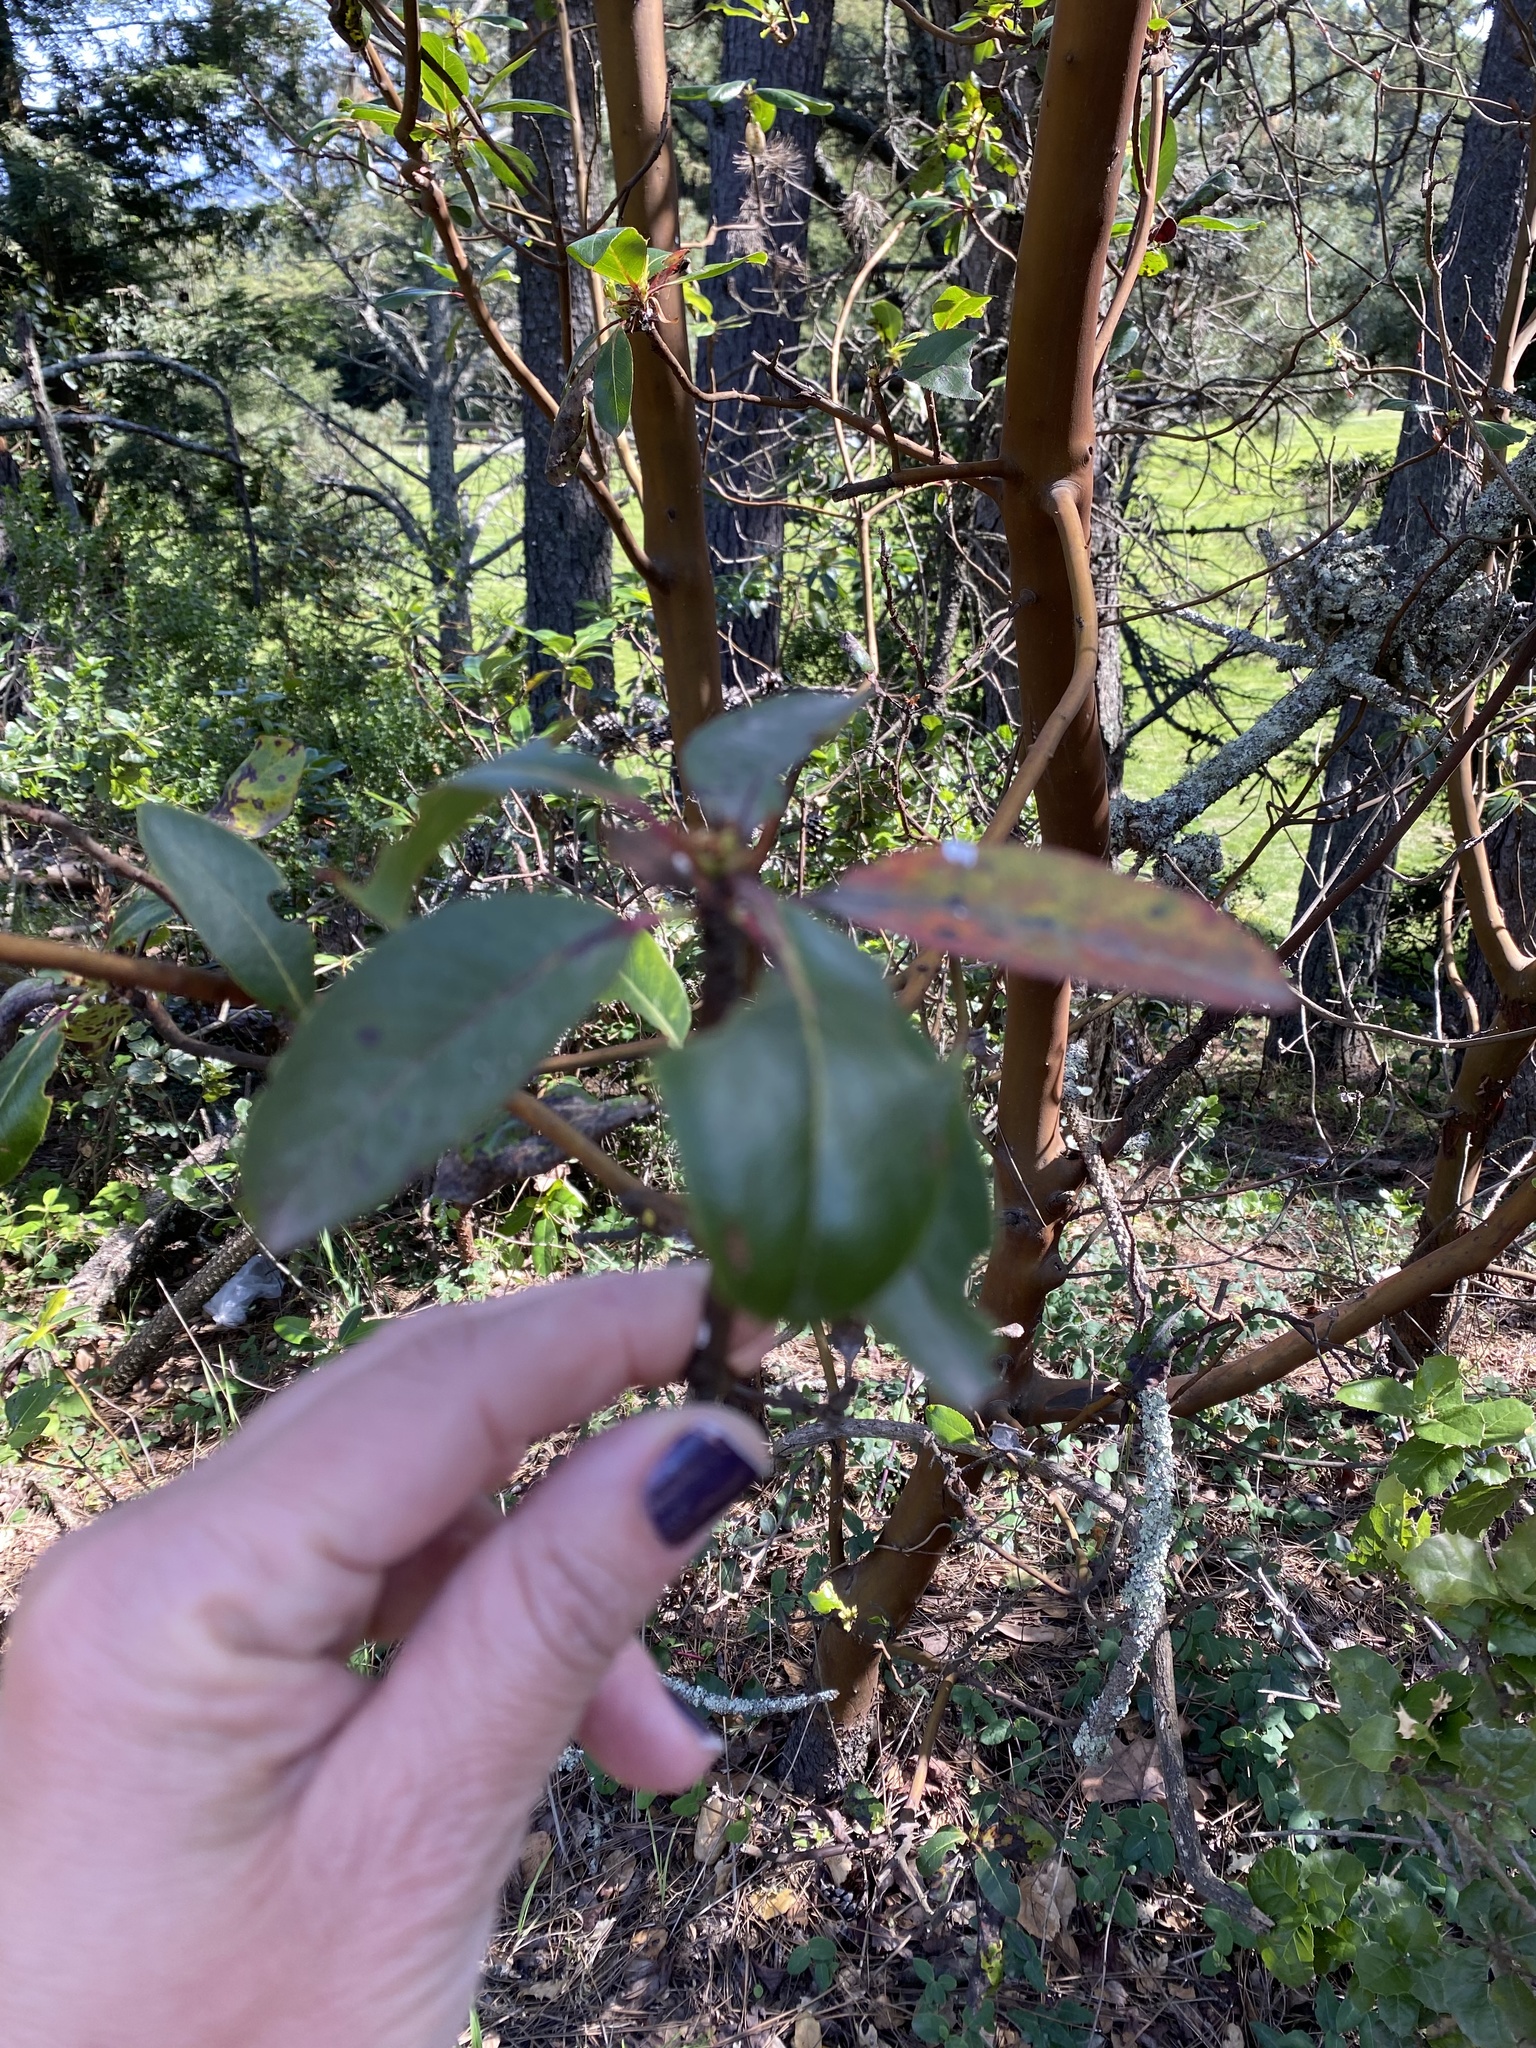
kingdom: Plantae
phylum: Tracheophyta
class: Magnoliopsida
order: Ericales
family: Ericaceae
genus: Arbutus
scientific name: Arbutus menziesii
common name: Pacific madrone
